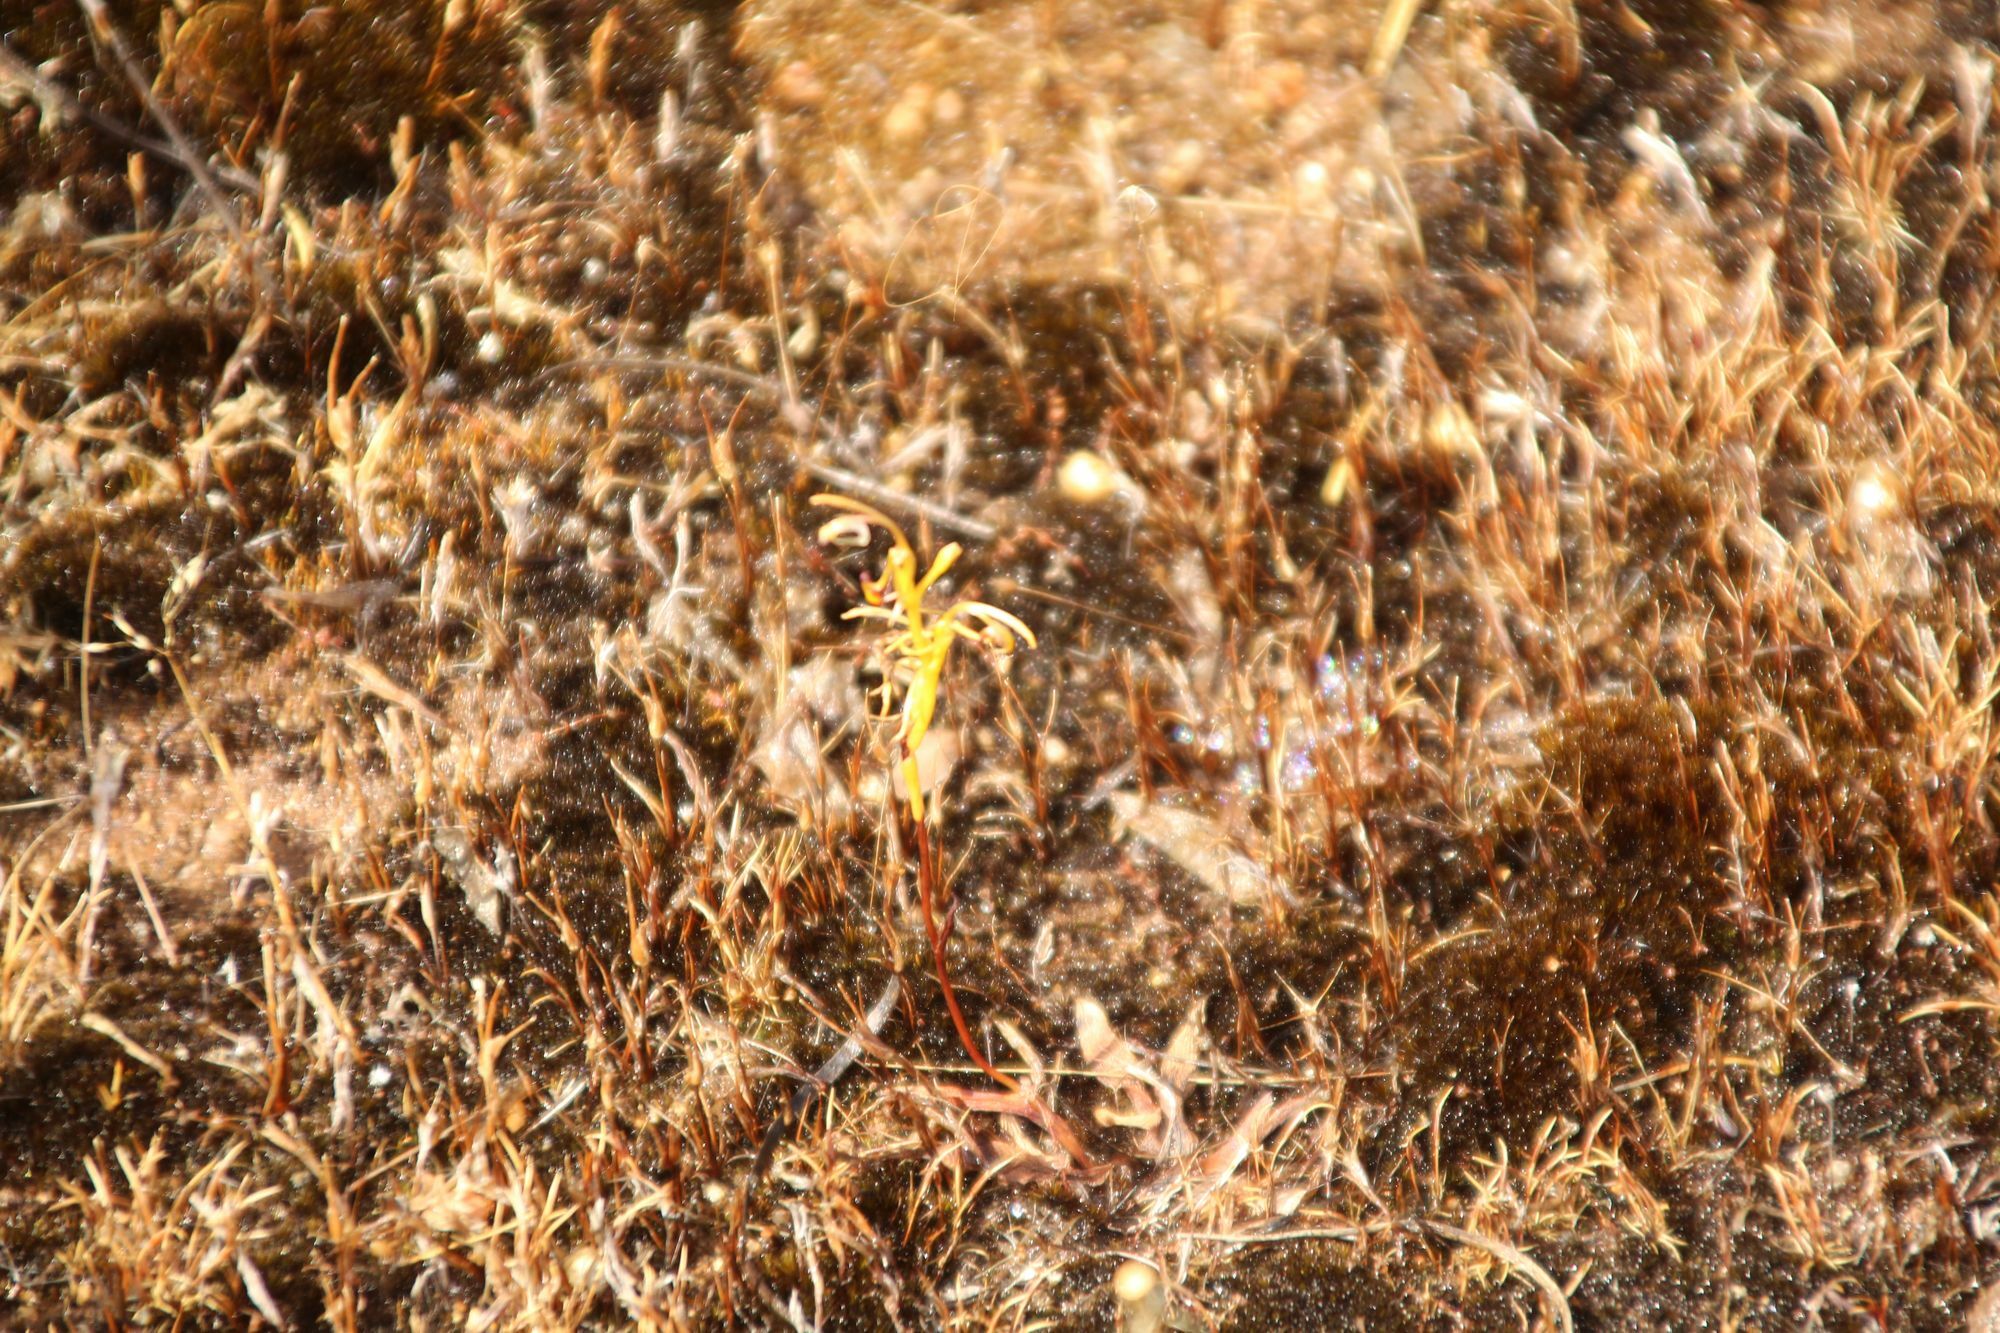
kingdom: Plantae
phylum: Tracheophyta
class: Liliopsida
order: Asparagales
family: Orchidaceae
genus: Spiculaea
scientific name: Spiculaea ciliata
